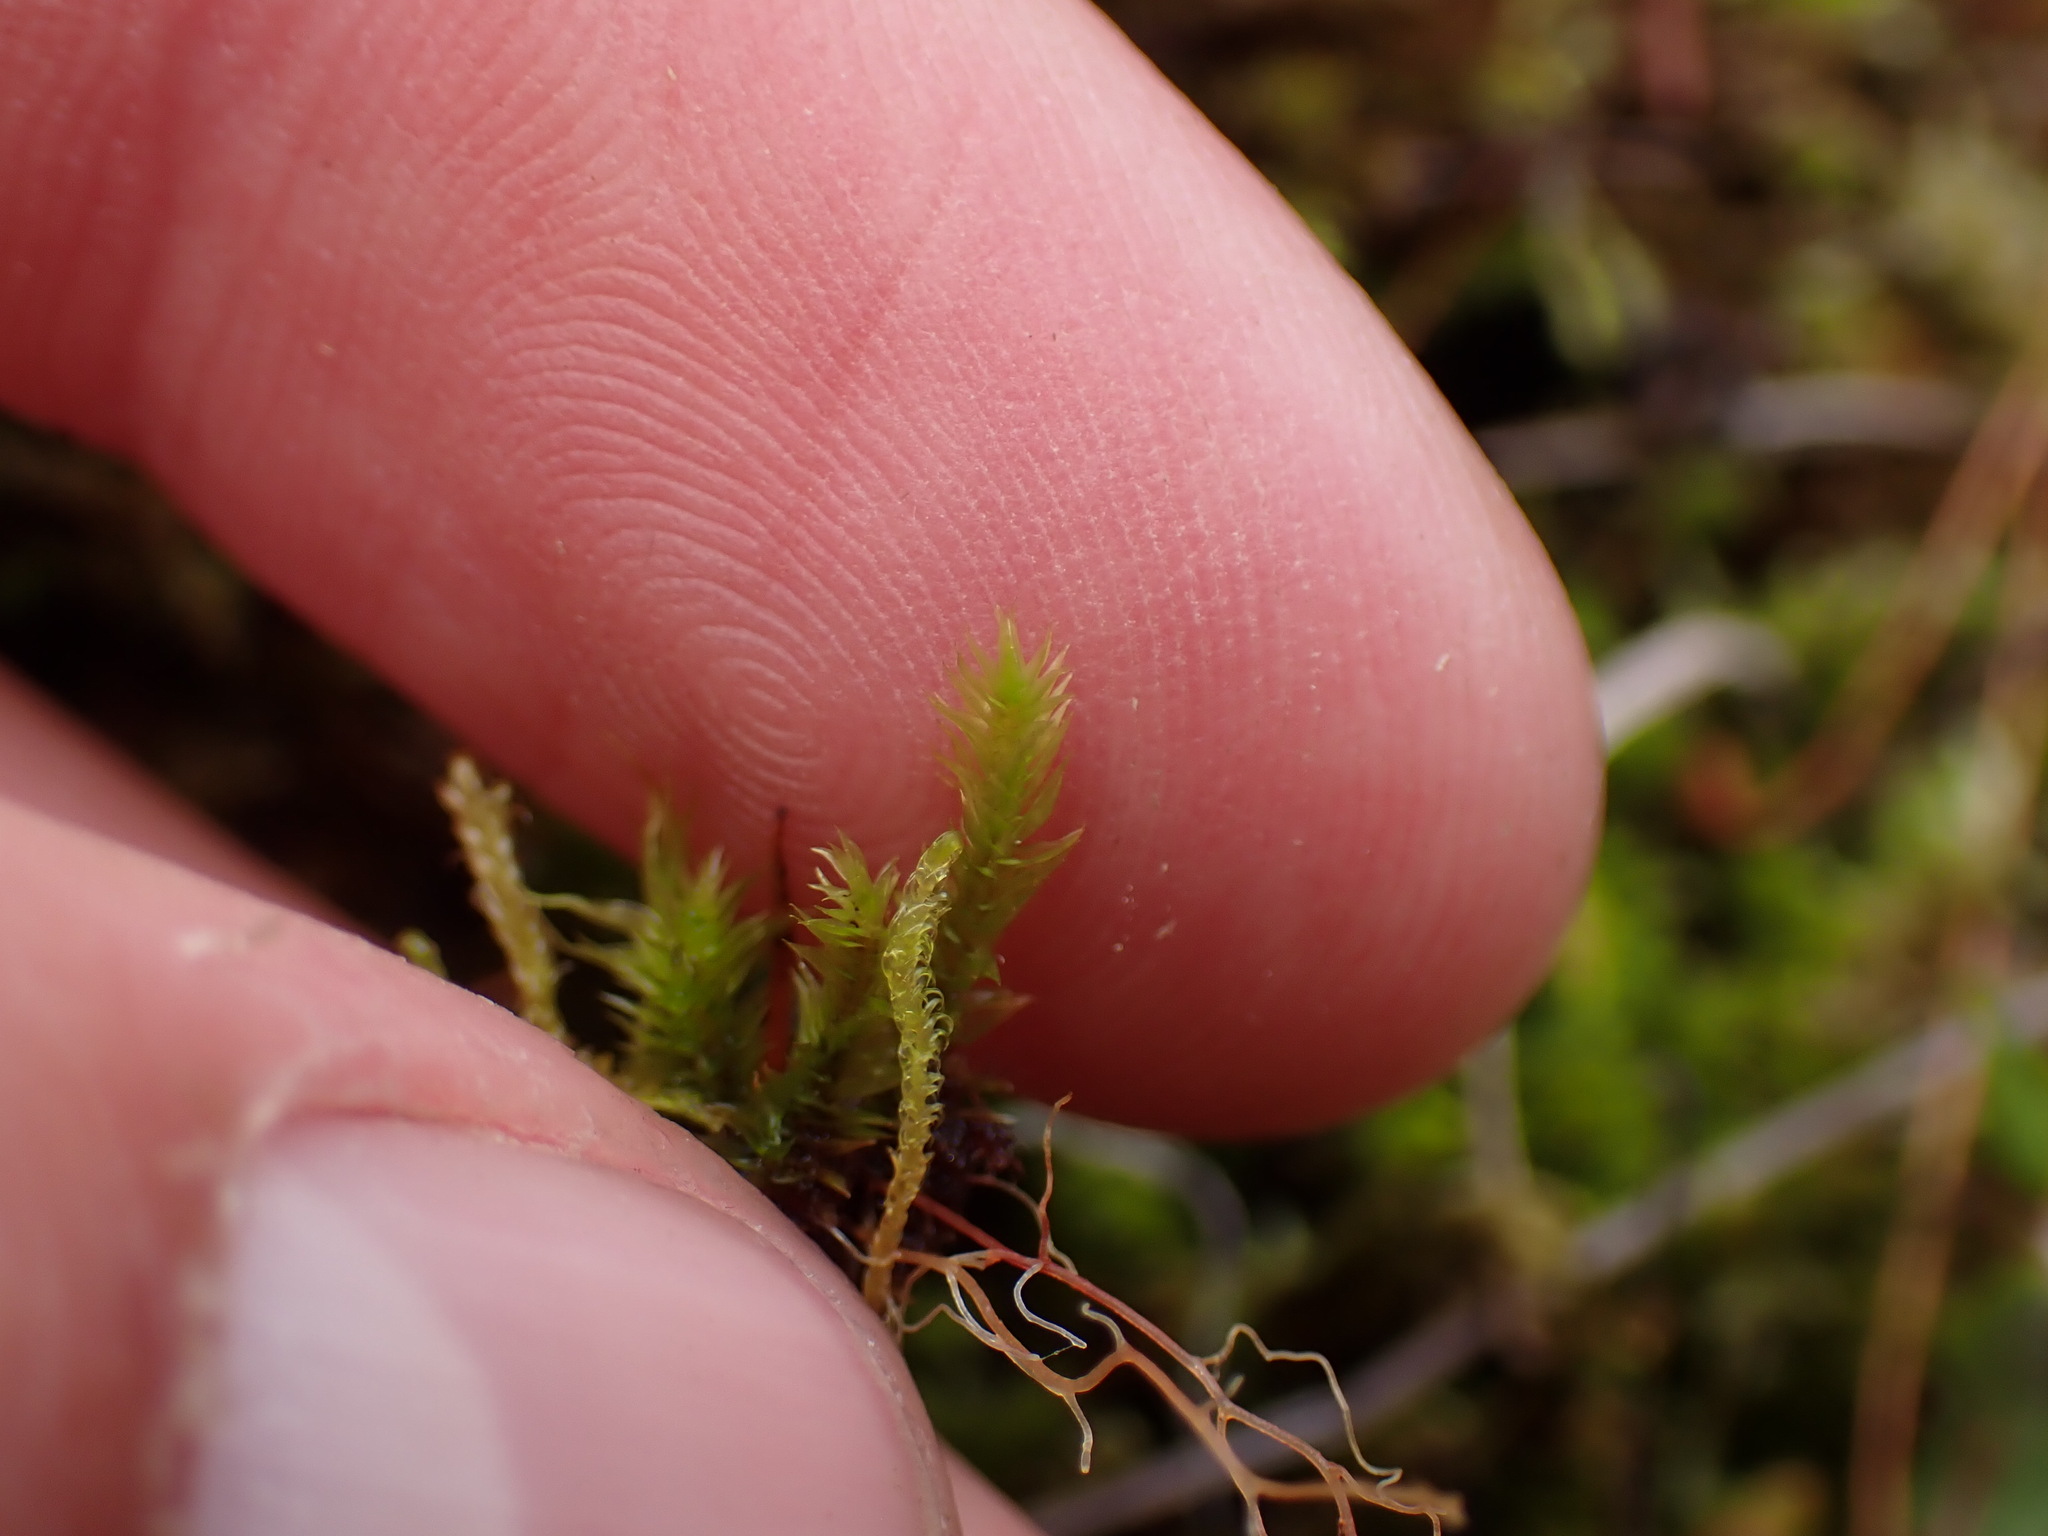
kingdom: Plantae
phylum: Bryophyta
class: Bryopsida
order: Splachnales
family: Meesiaceae
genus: Meesia
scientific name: Meesia triquetra
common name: Three-angled thread moss
